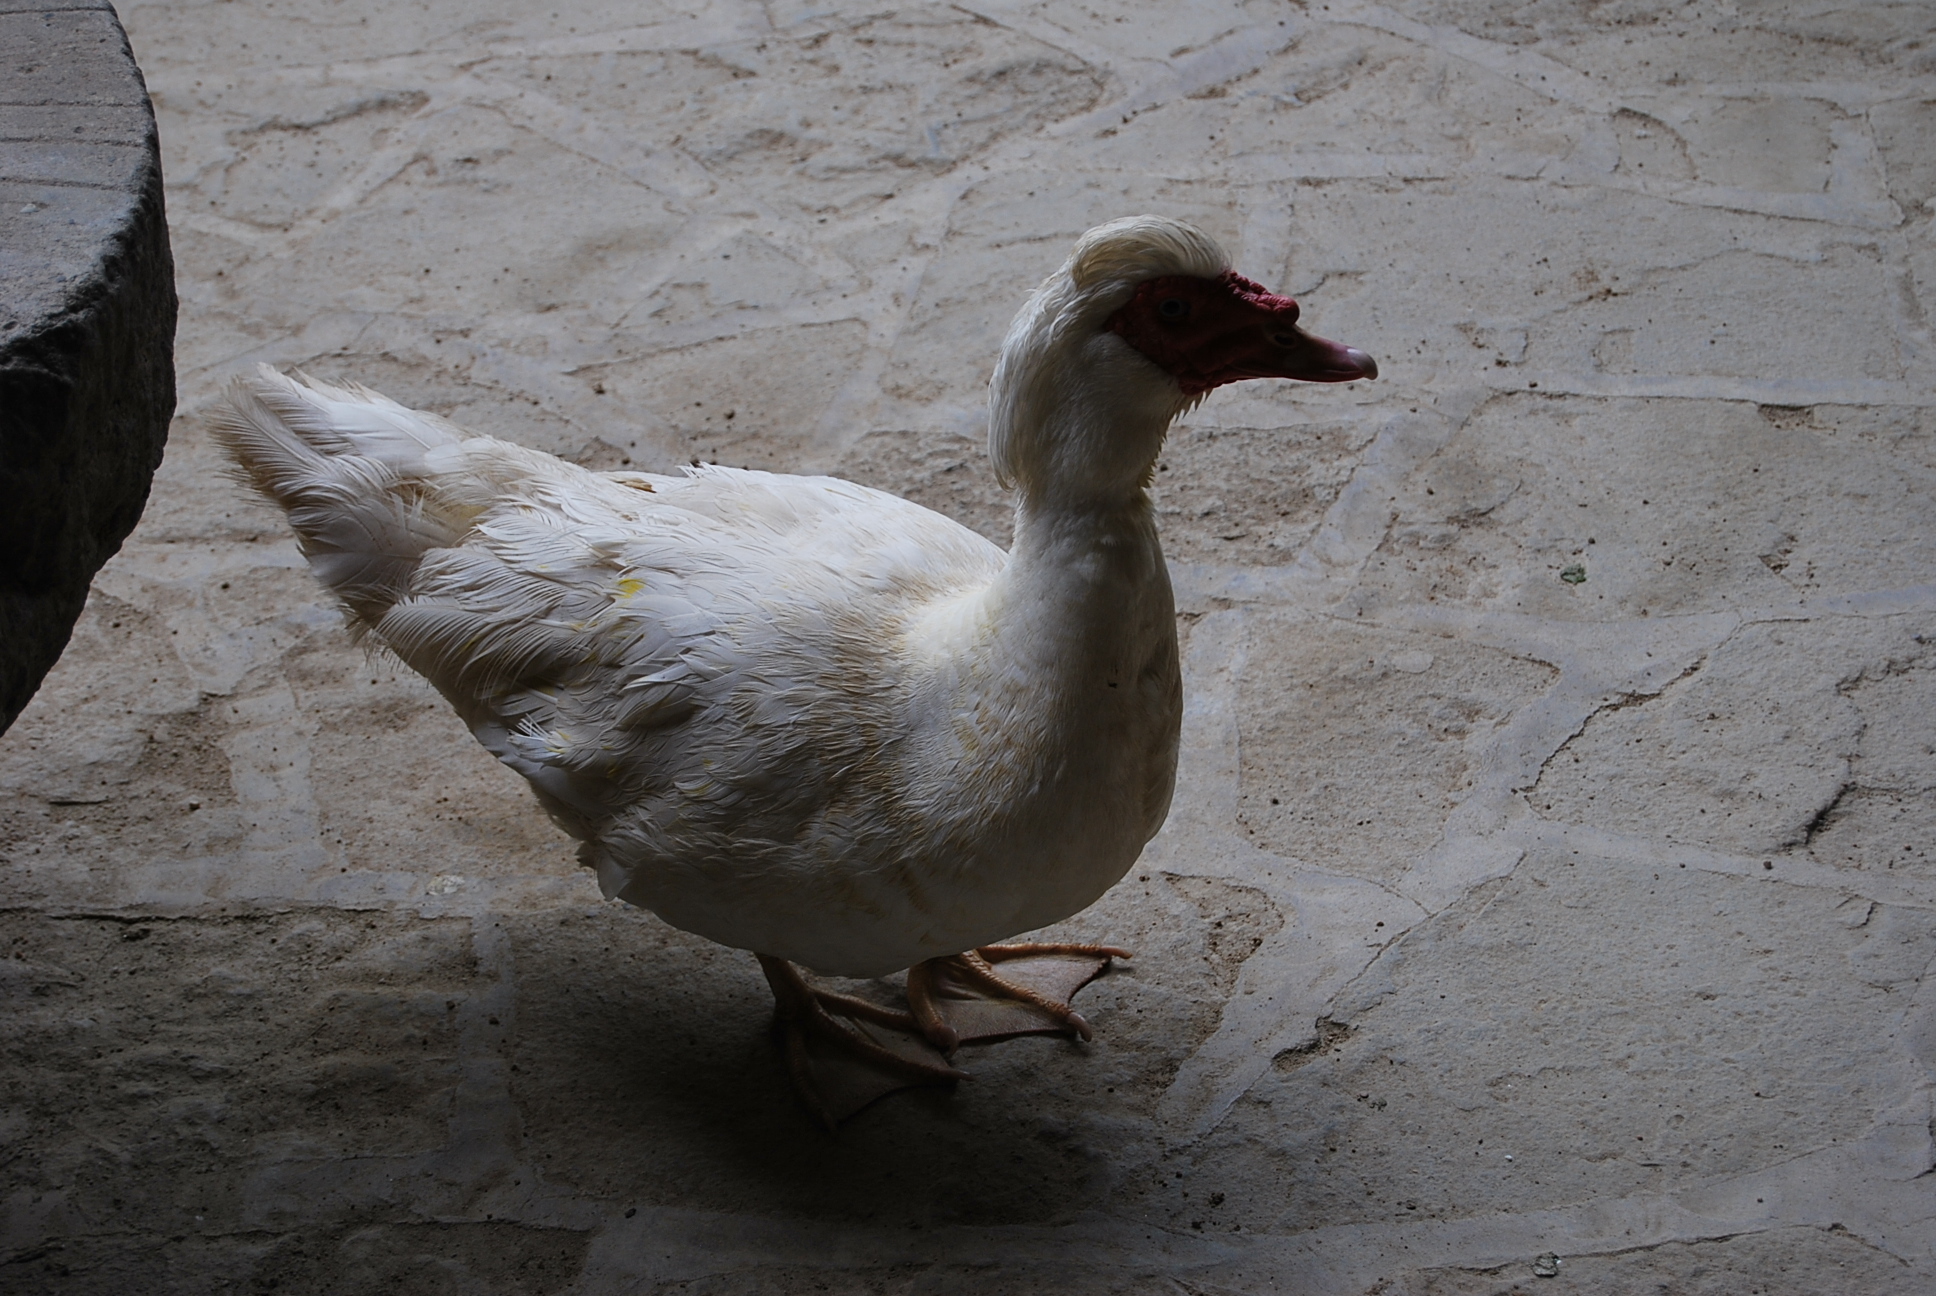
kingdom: Animalia
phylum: Chordata
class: Aves
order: Anseriformes
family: Anatidae
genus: Cairina
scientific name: Cairina moschata
